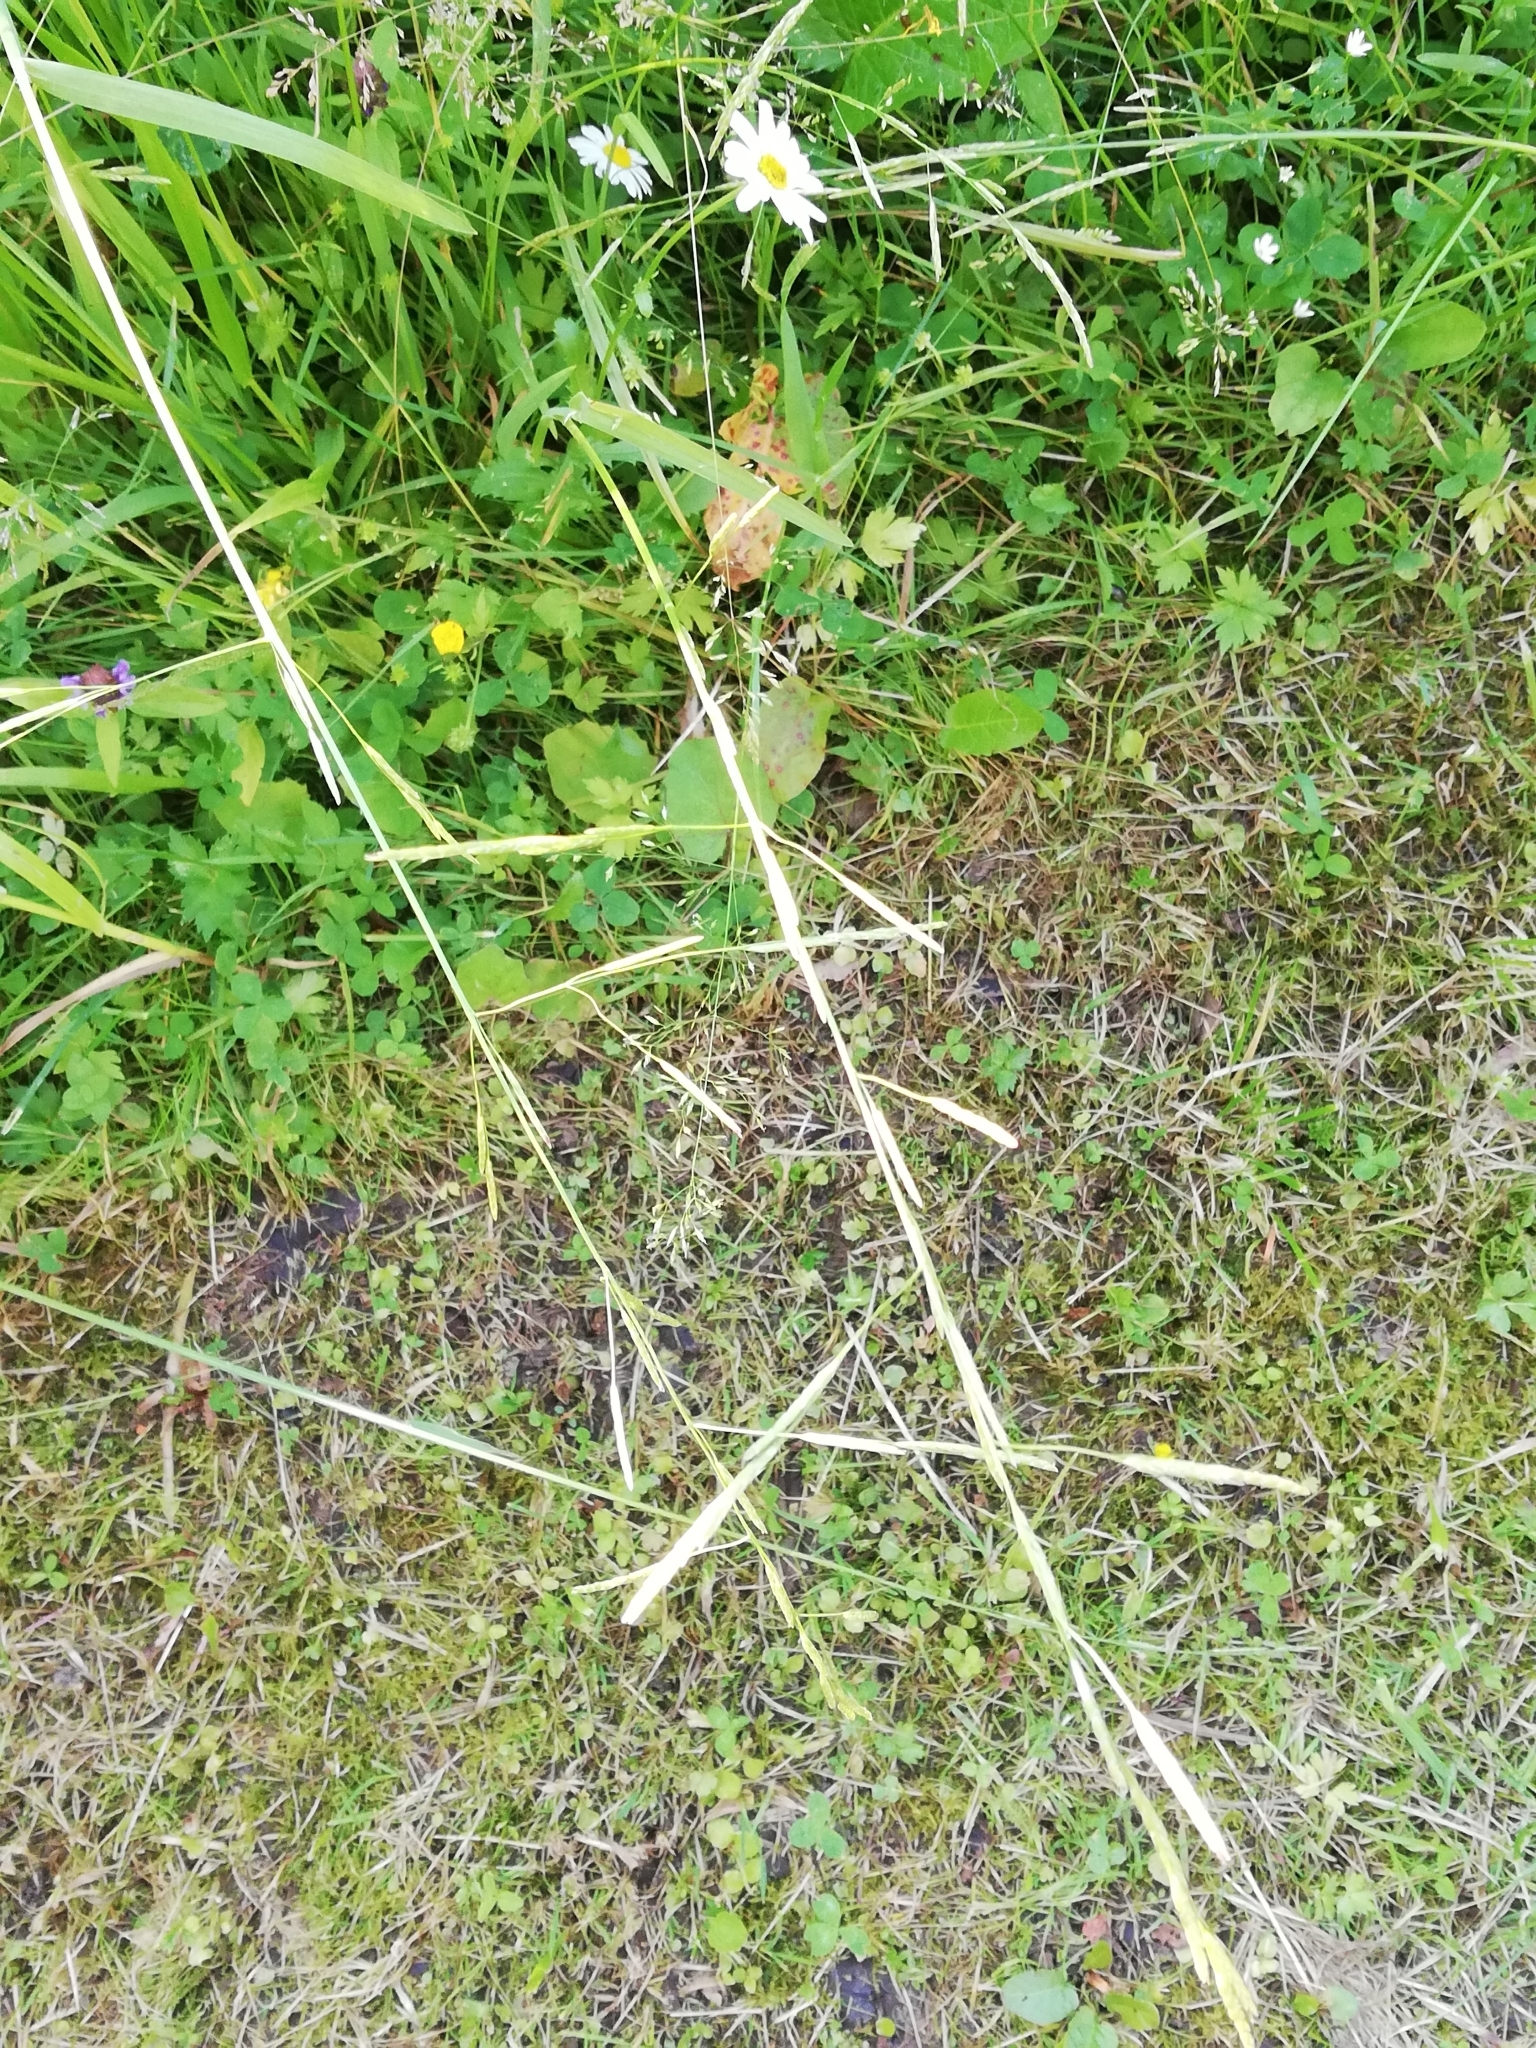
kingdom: Plantae
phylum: Tracheophyta
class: Liliopsida
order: Poales
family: Poaceae
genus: Glyceria
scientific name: Glyceria fluitans
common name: Floating sweet-grass
